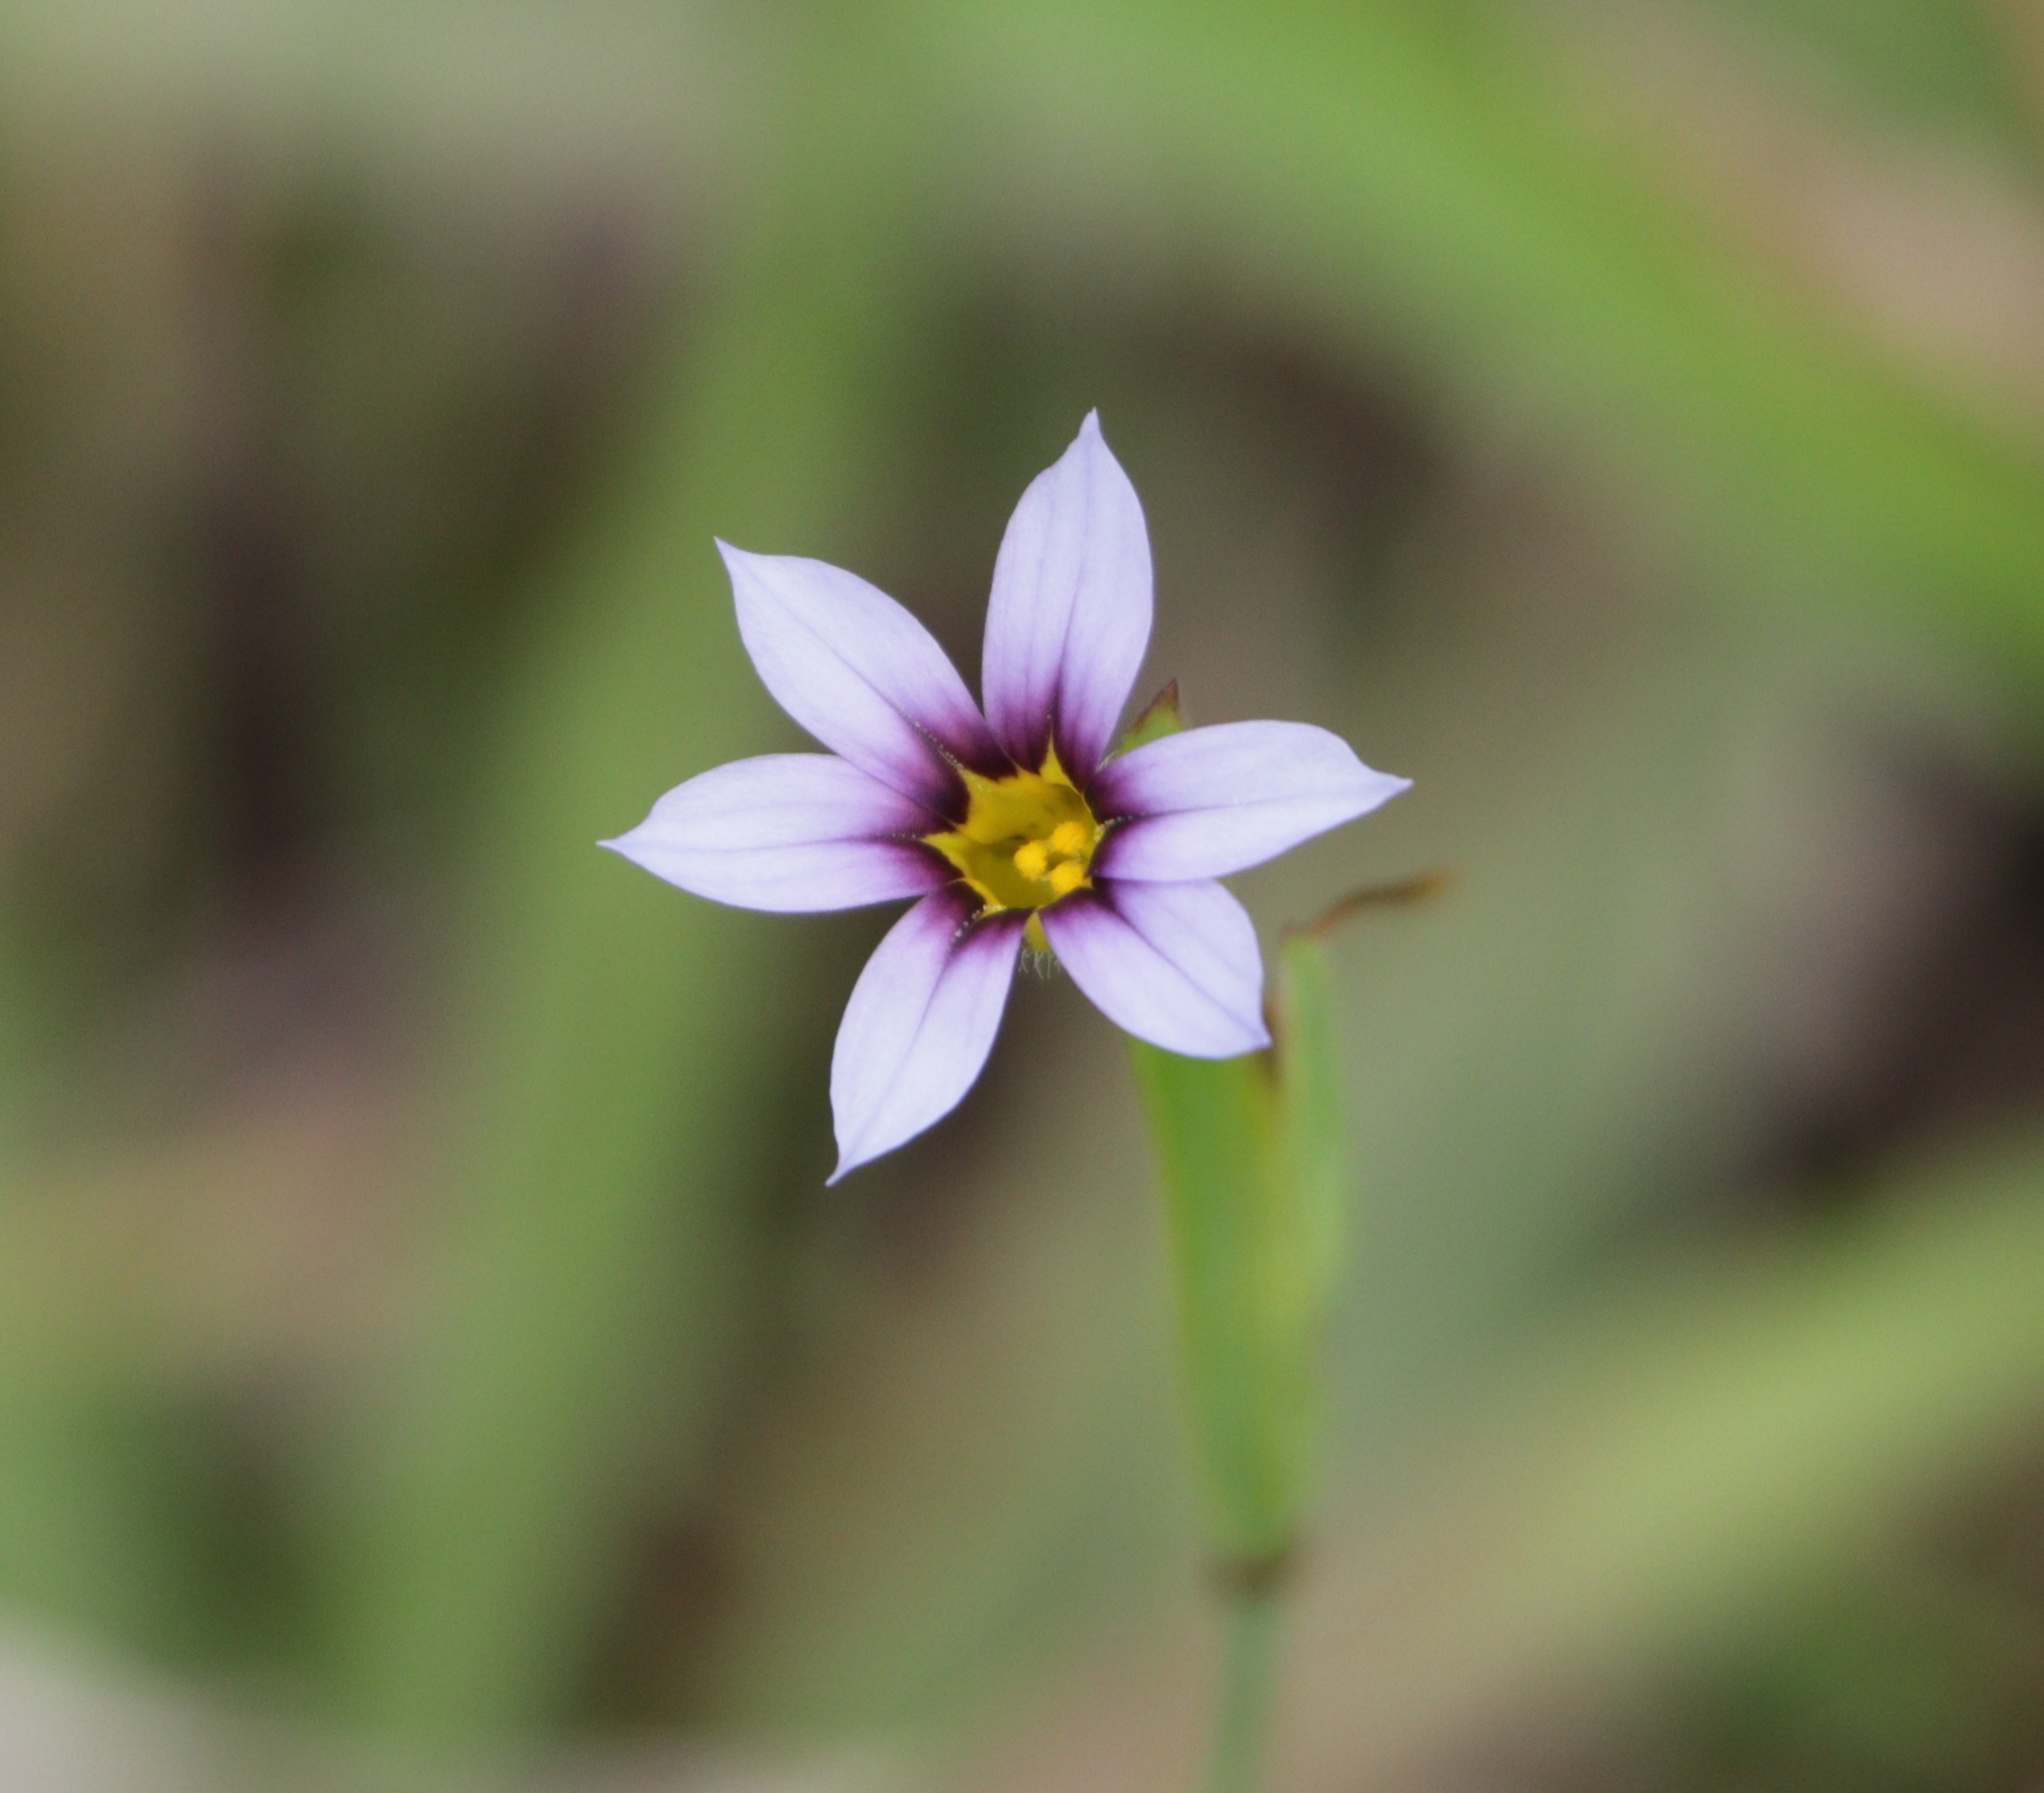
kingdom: Plantae
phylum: Tracheophyta
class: Liliopsida
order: Asparagales
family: Iridaceae
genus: Sisyrinchium
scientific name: Sisyrinchium micranthum
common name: Bermuda pigroot
